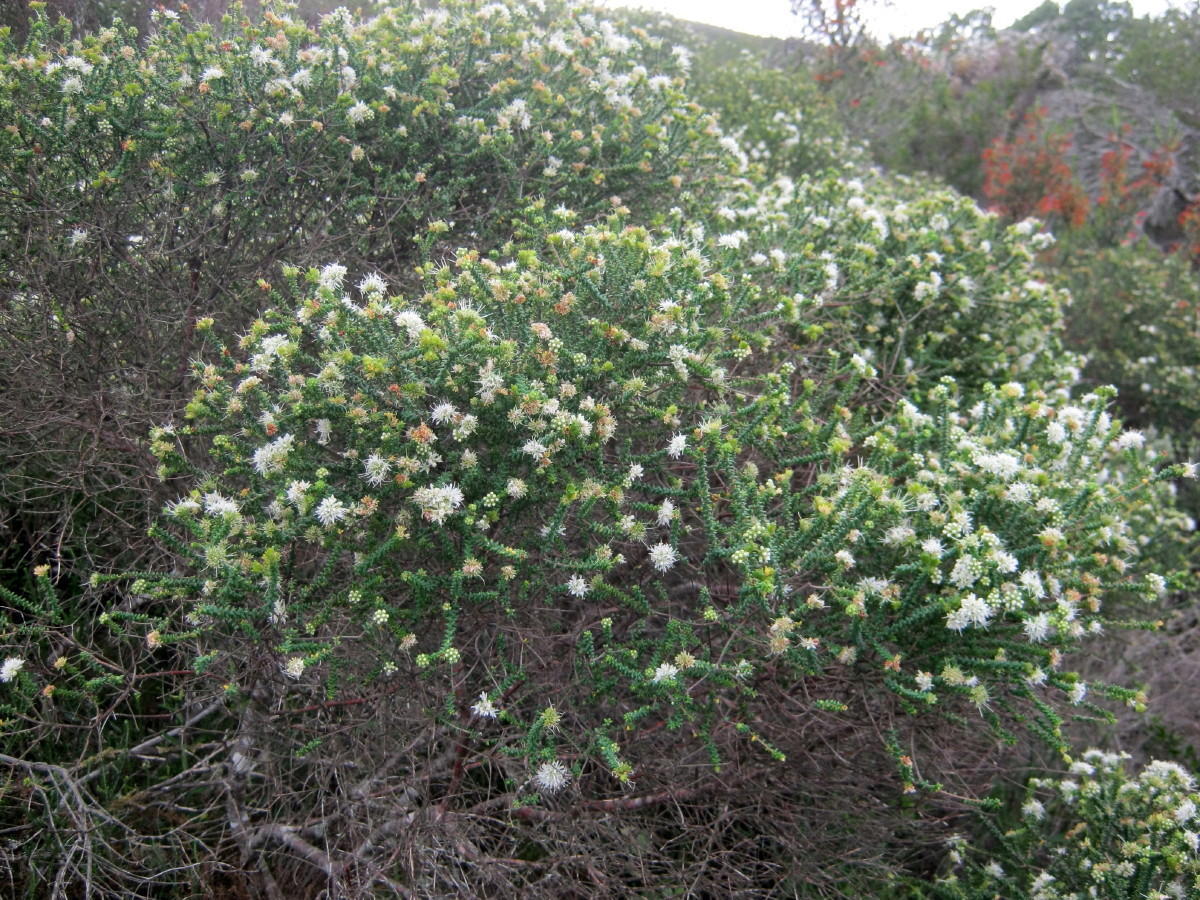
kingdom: Plantae
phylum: Tracheophyta
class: Magnoliopsida
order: Sapindales
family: Rutaceae
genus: Agathosma
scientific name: Agathosma apiculata
